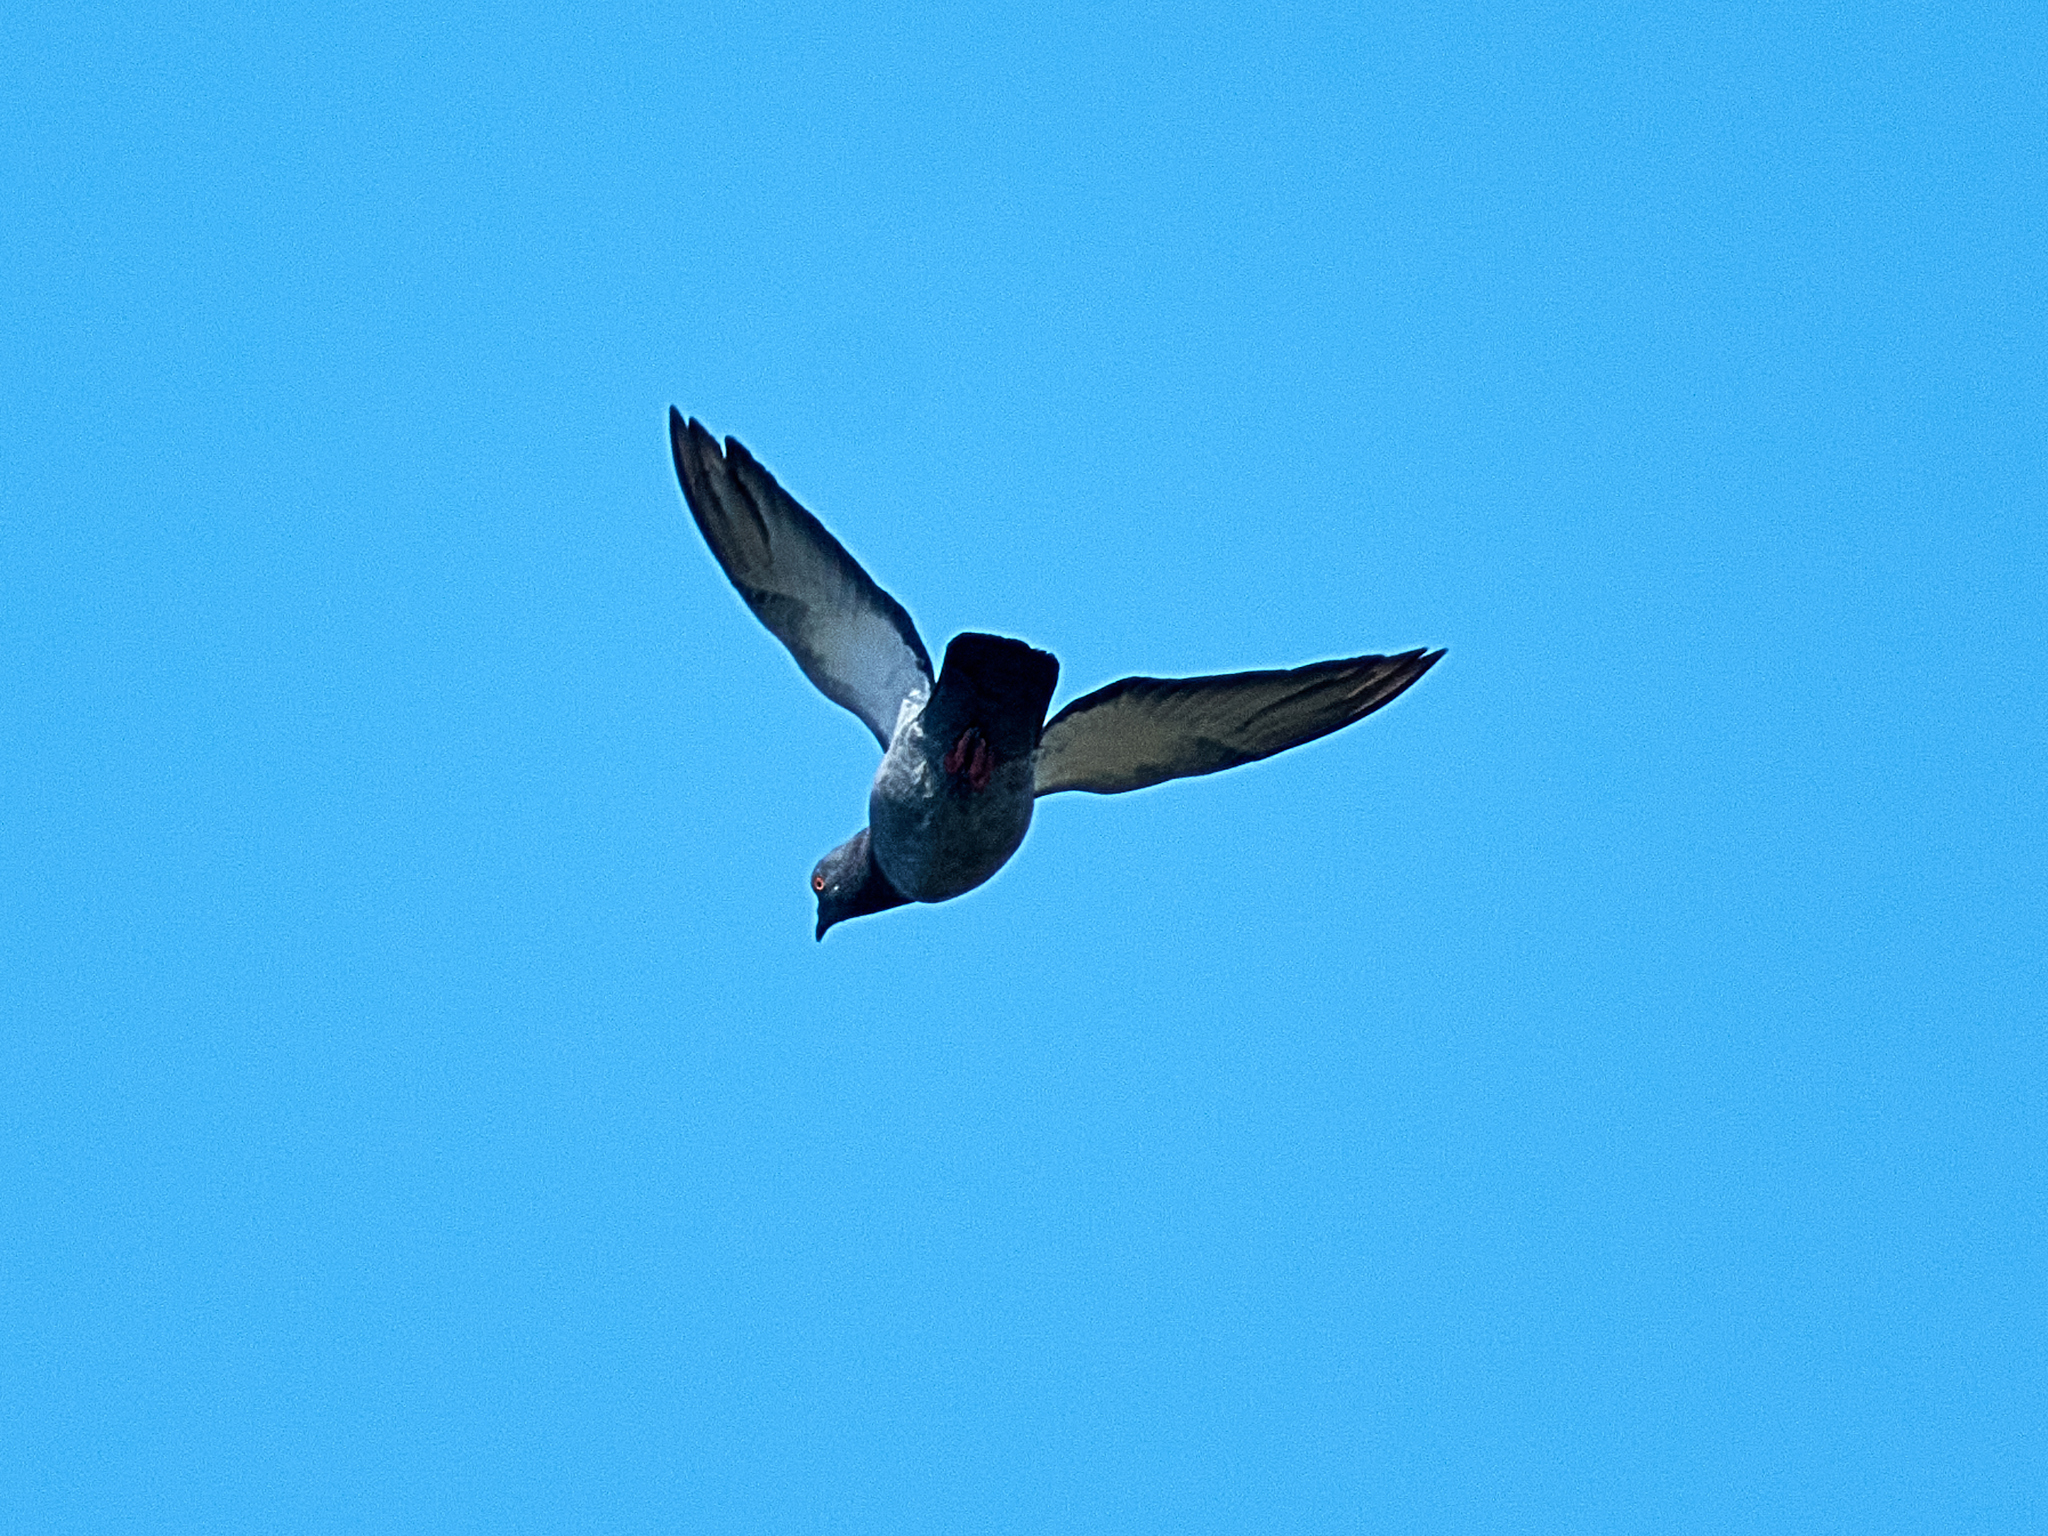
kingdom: Animalia
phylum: Chordata
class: Aves
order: Columbiformes
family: Columbidae
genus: Columba
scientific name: Columba livia
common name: Rock pigeon
